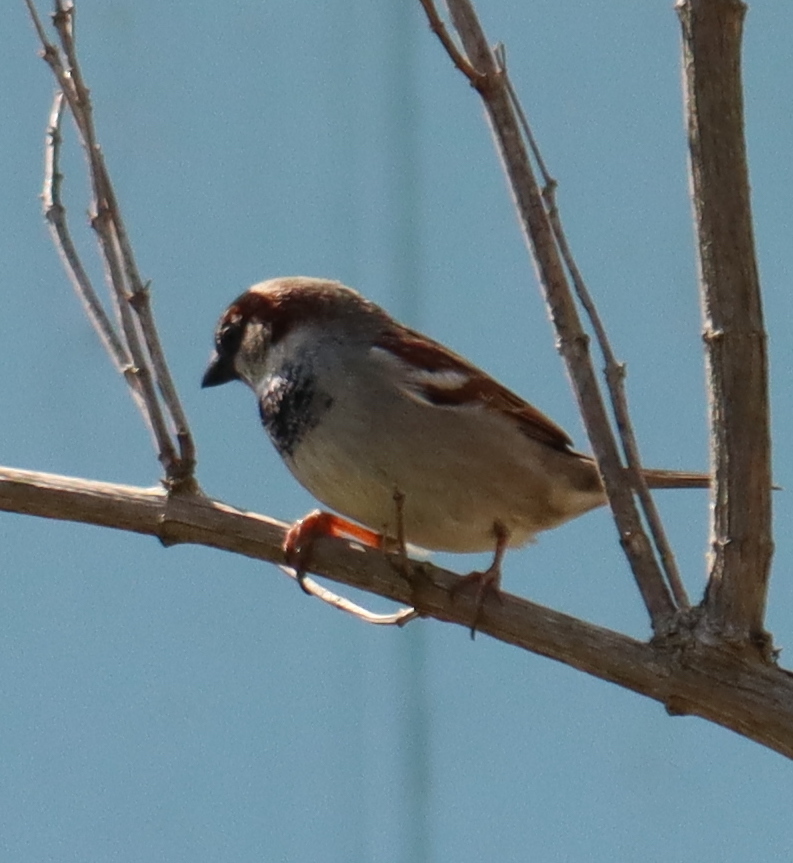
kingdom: Animalia
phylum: Chordata
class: Aves
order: Passeriformes
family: Passeridae
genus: Passer
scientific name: Passer domesticus
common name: House sparrow
